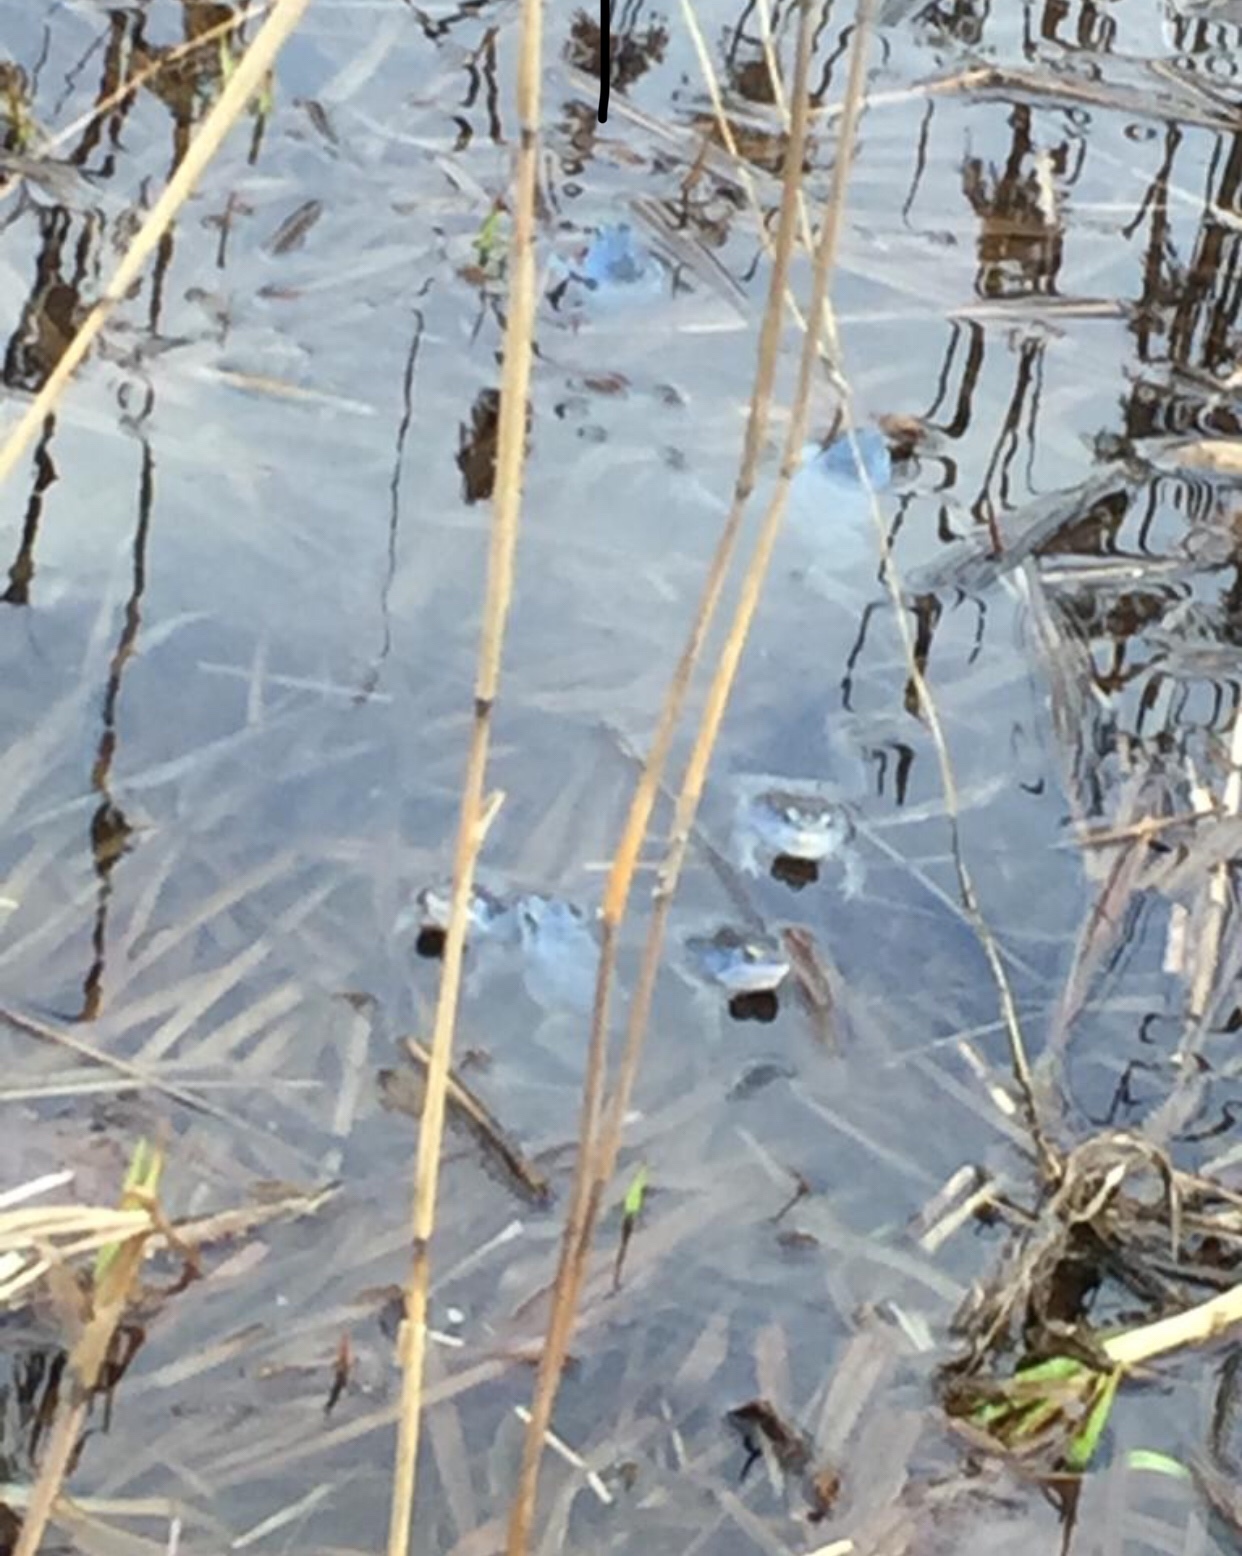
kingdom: Animalia
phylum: Chordata
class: Amphibia
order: Anura
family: Ranidae
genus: Rana
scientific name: Rana arvalis
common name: Moor frog
